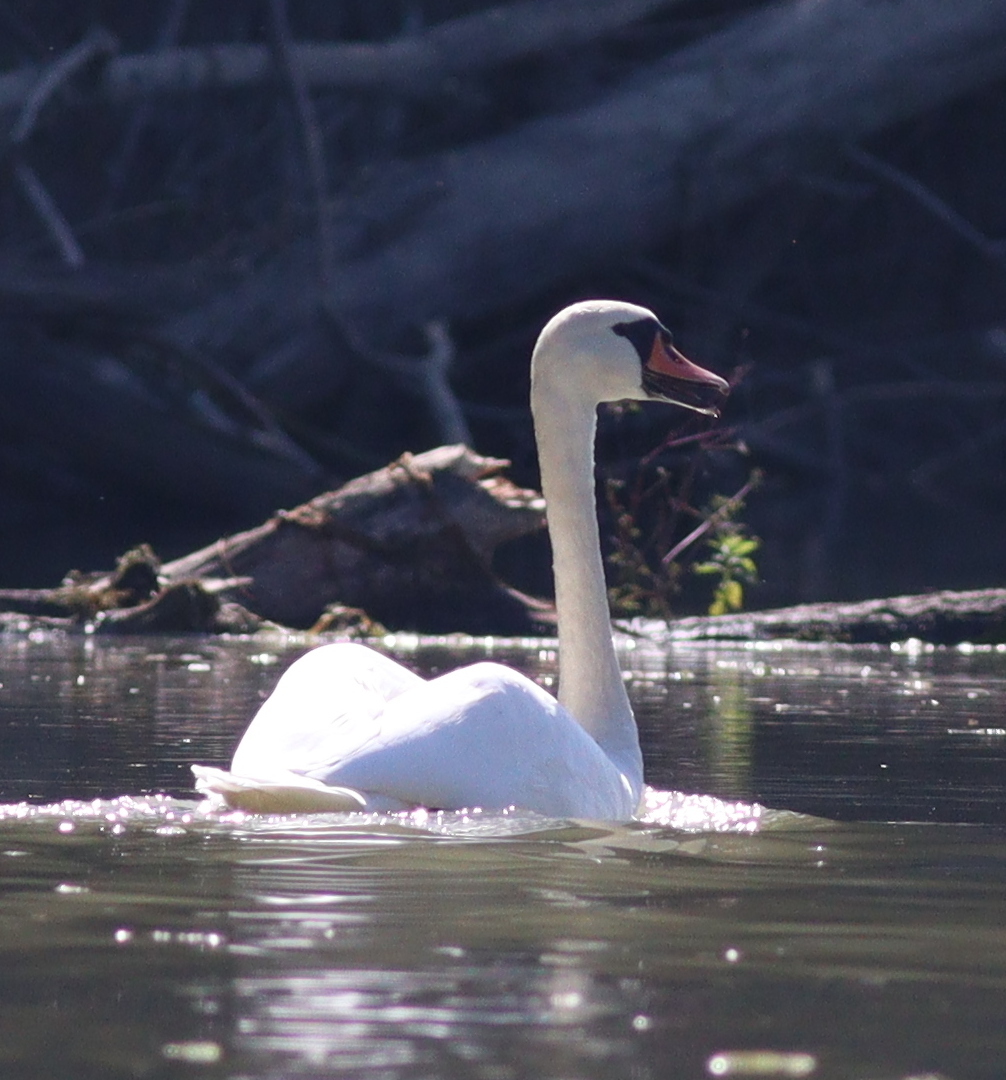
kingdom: Animalia
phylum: Chordata
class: Aves
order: Anseriformes
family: Anatidae
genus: Cygnus
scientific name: Cygnus olor
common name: Mute swan
